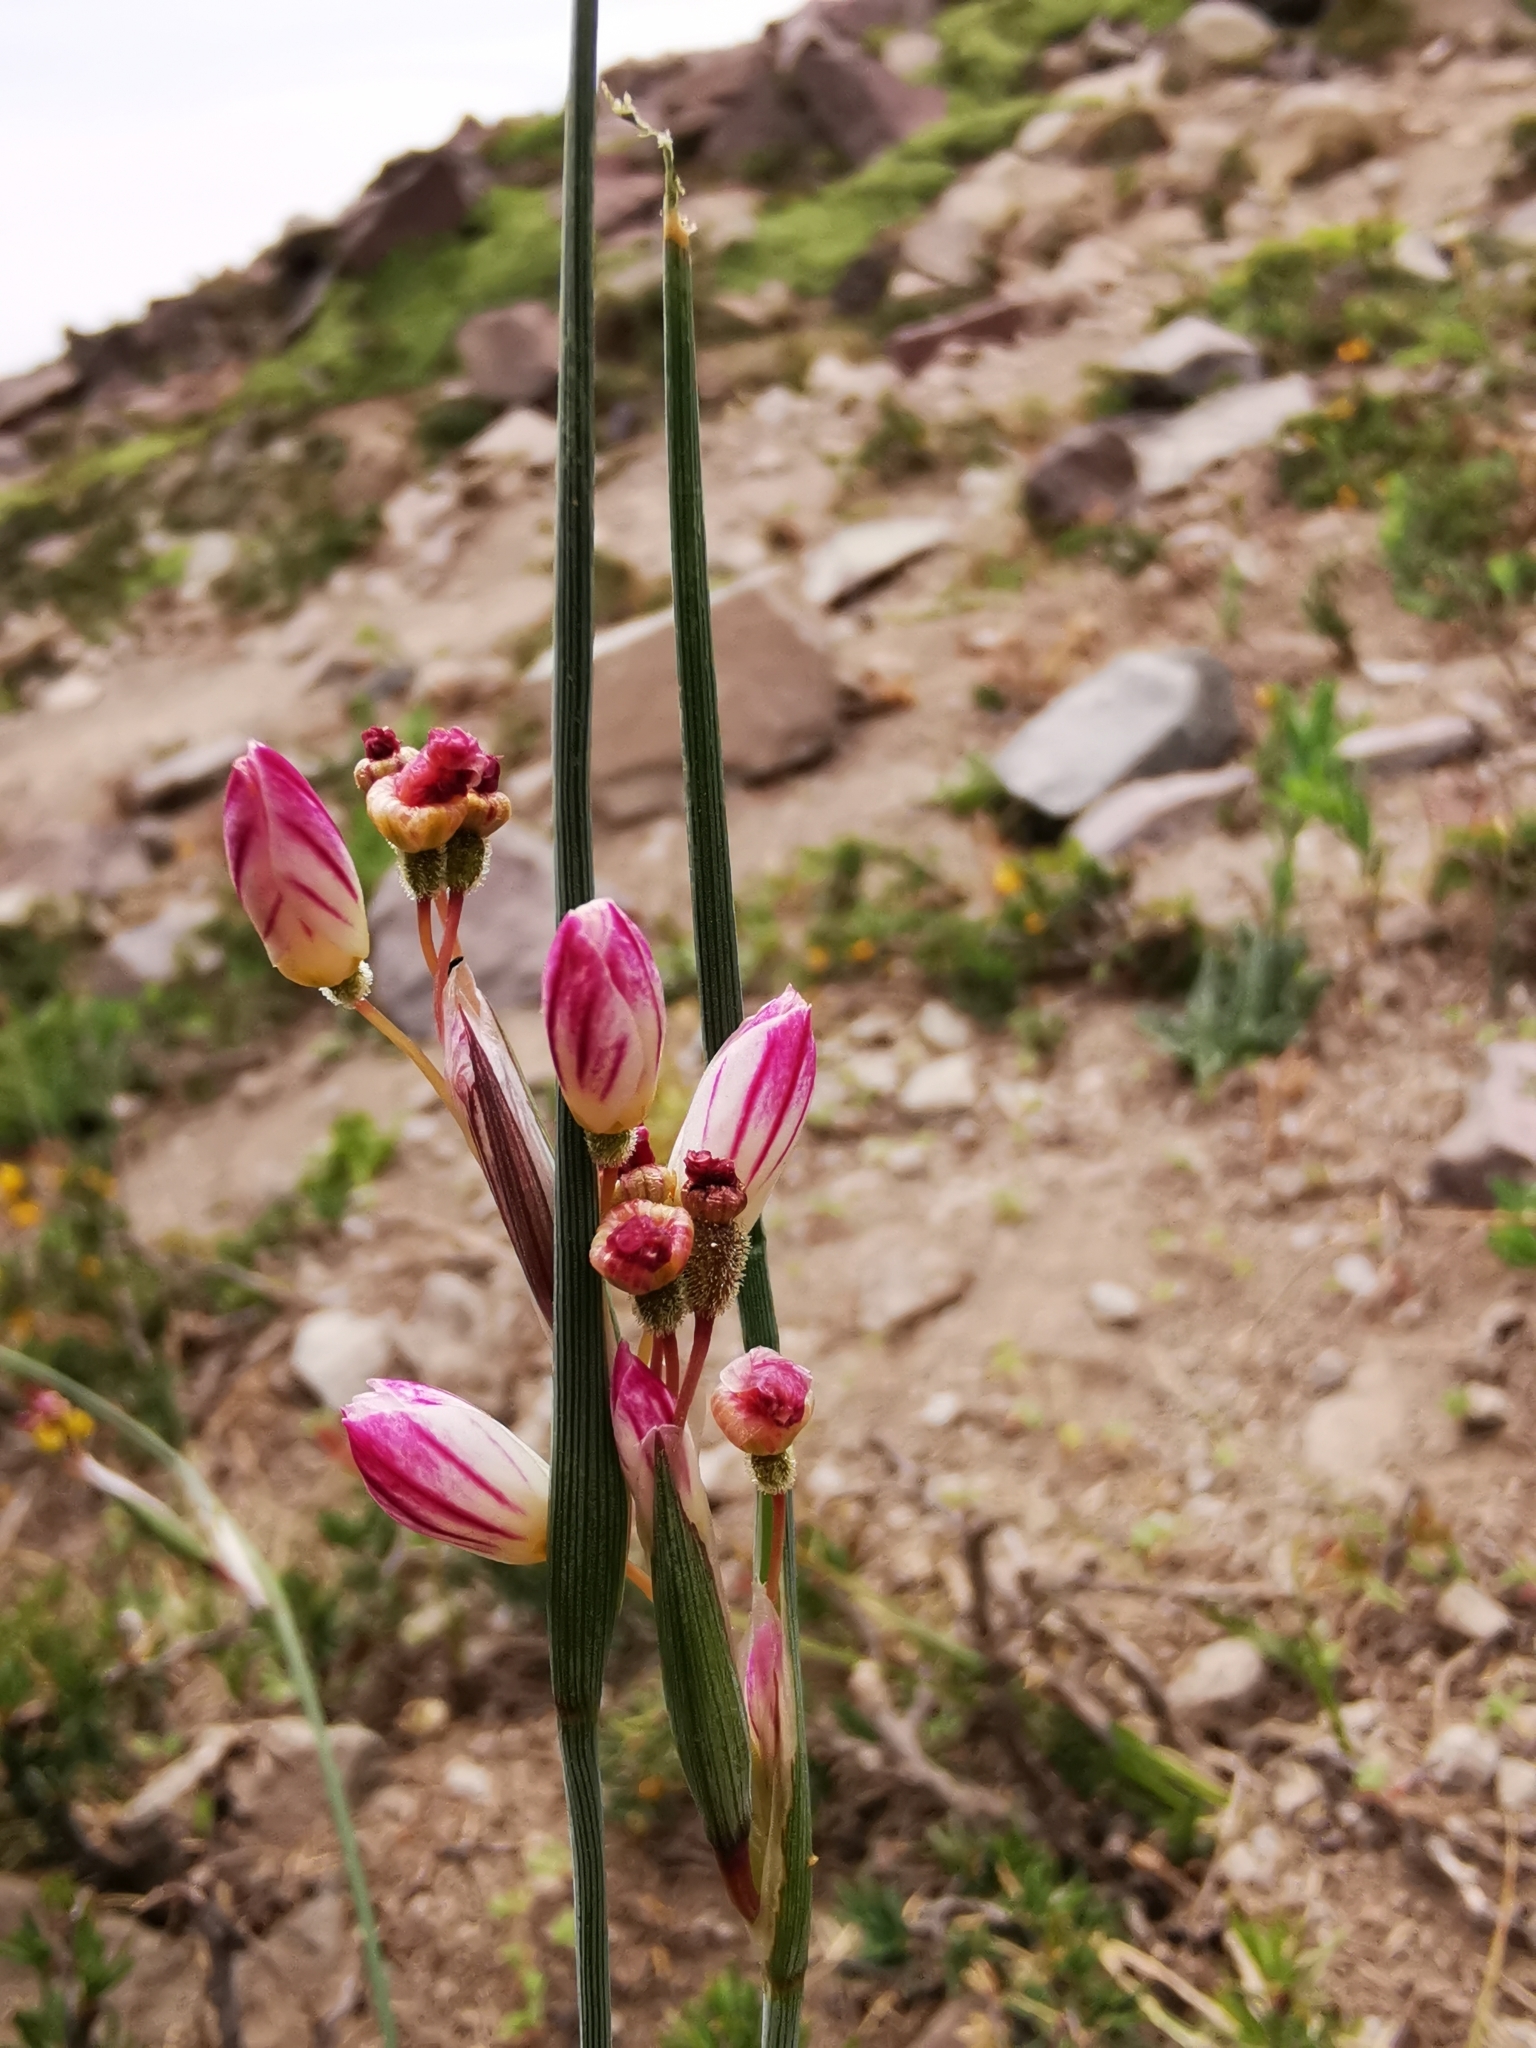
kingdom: Plantae
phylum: Tracheophyta
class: Liliopsida
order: Asparagales
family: Iridaceae
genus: Olsynium
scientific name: Olsynium philippii
